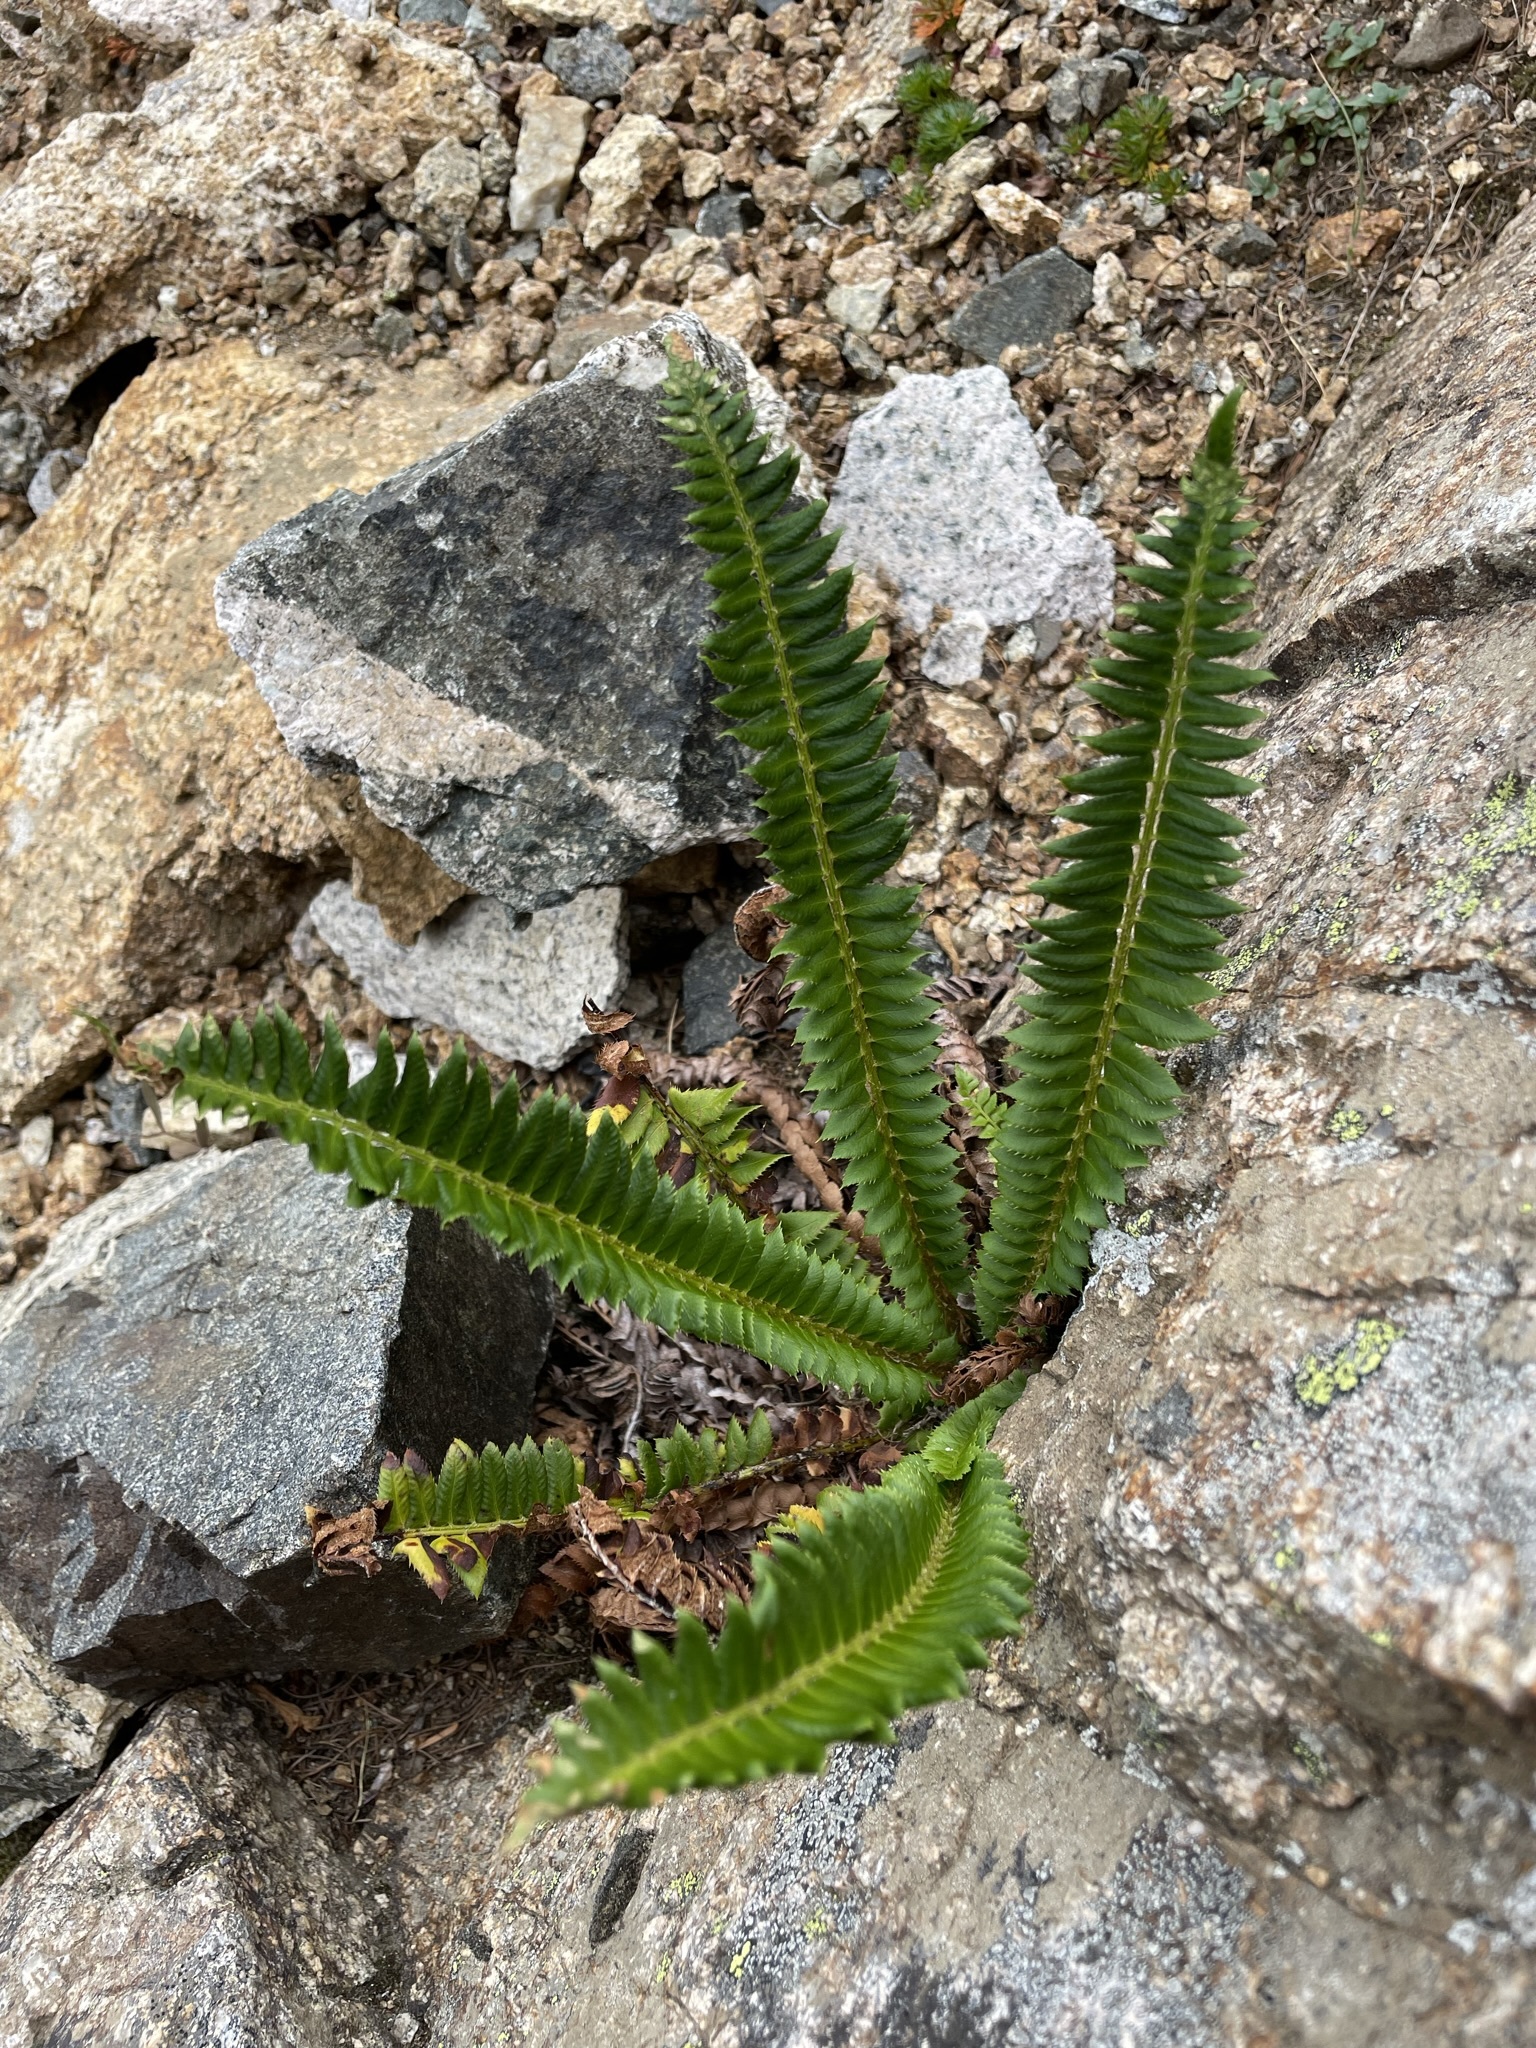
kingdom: Plantae
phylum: Tracheophyta
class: Polypodiopsida
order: Polypodiales
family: Dryopteridaceae
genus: Polystichum
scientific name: Polystichum lonchitis
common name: Holly fern
